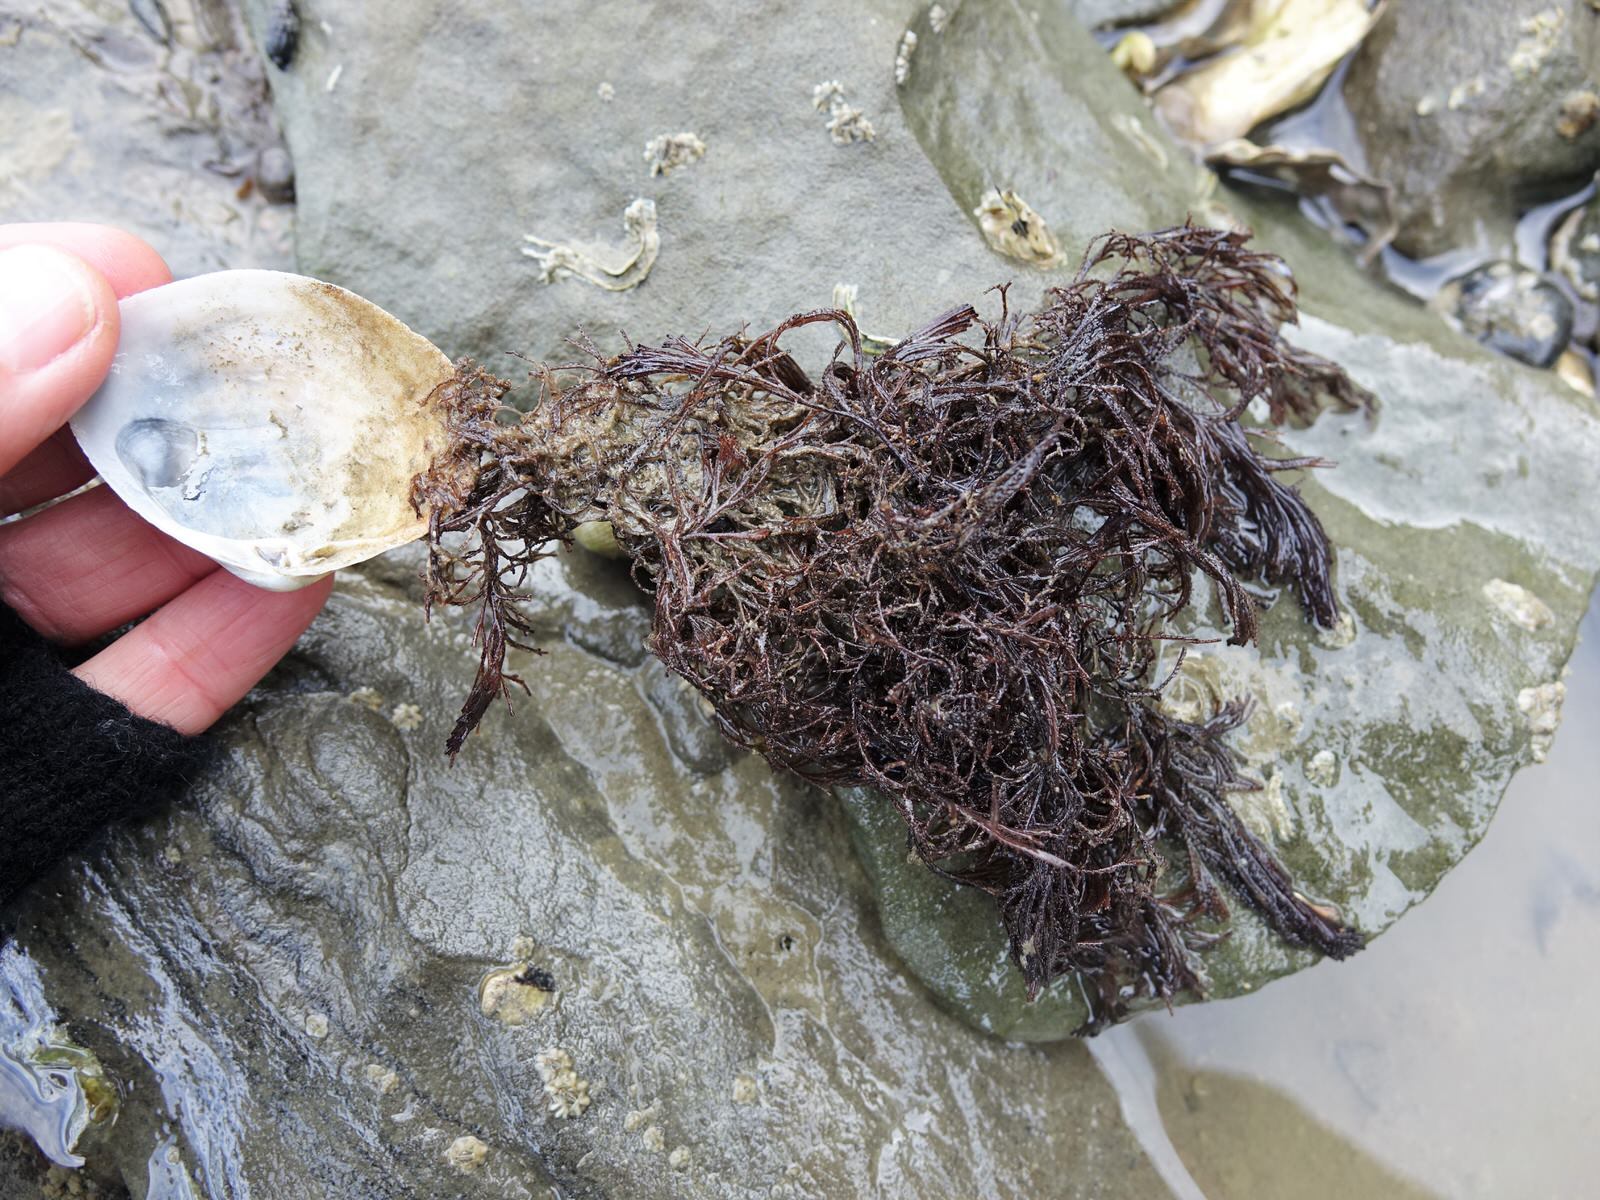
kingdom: Animalia
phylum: Bryozoa
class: Gymnolaemata
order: Cheilostomatida
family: Bugulidae
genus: Bugula
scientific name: Bugula neritina
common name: Brown bryozoan
